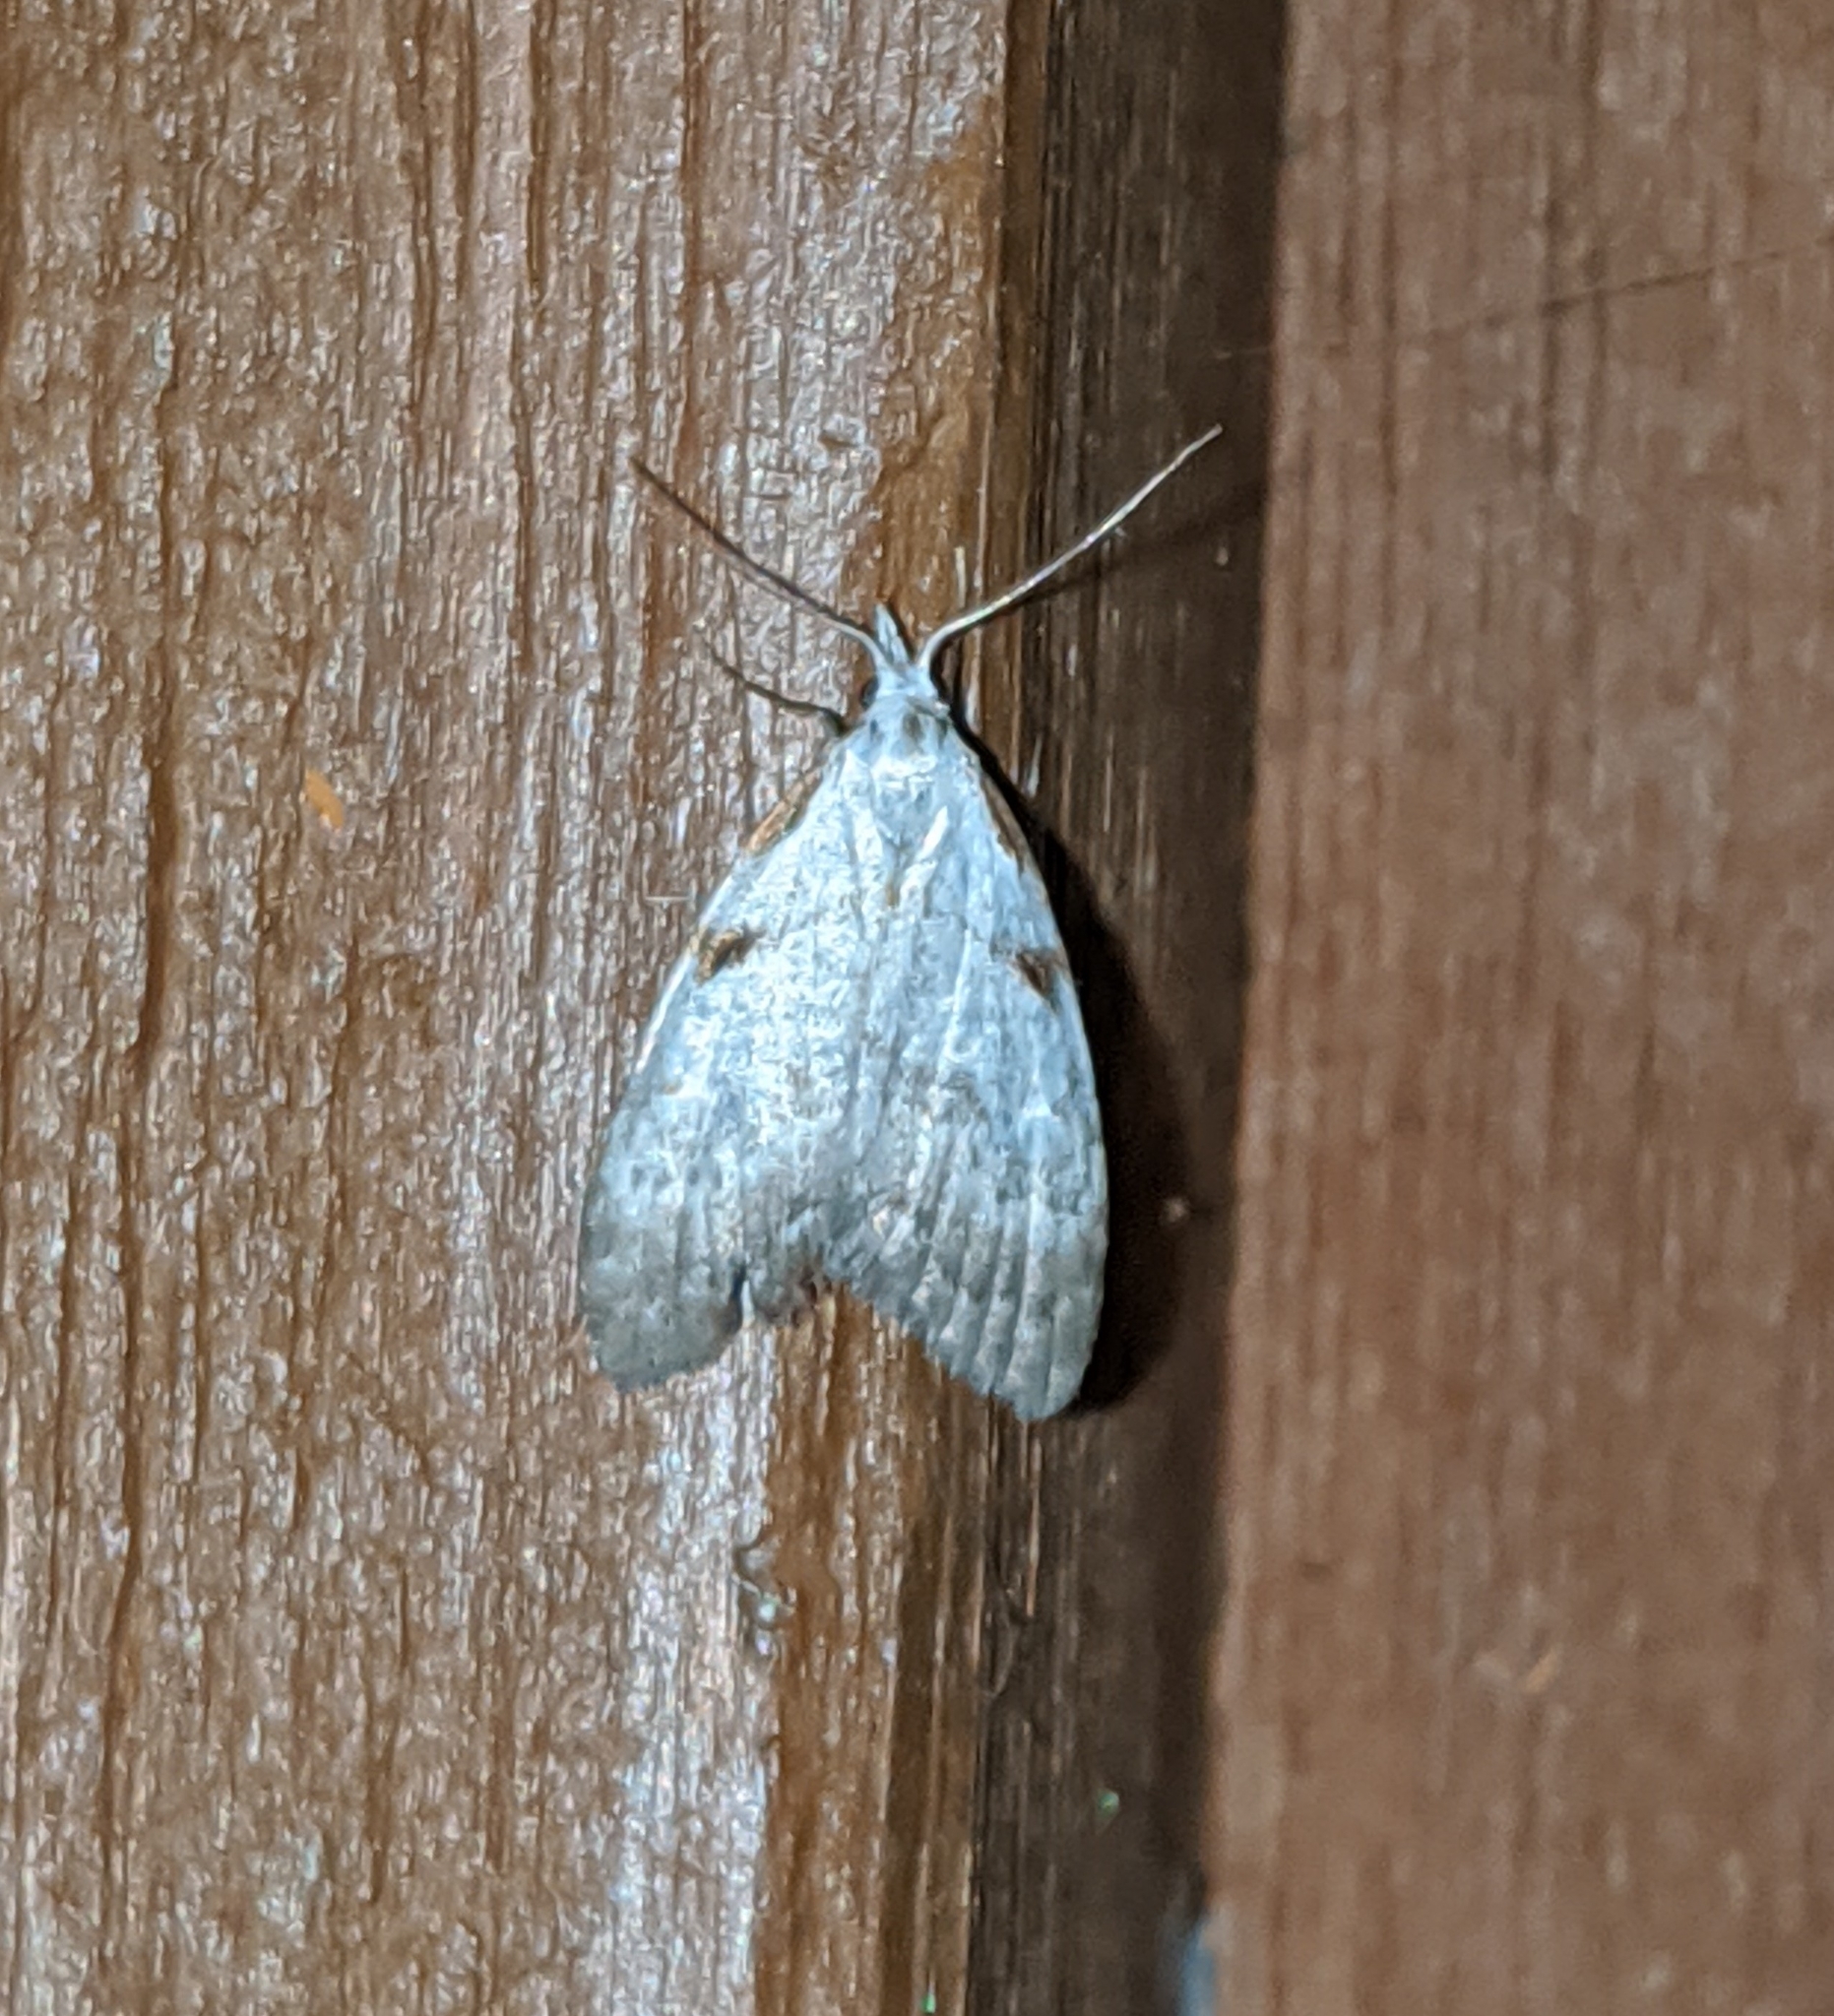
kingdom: Animalia
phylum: Arthropoda
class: Insecta
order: Lepidoptera
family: Nolidae
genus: Nola
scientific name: Nola minna
